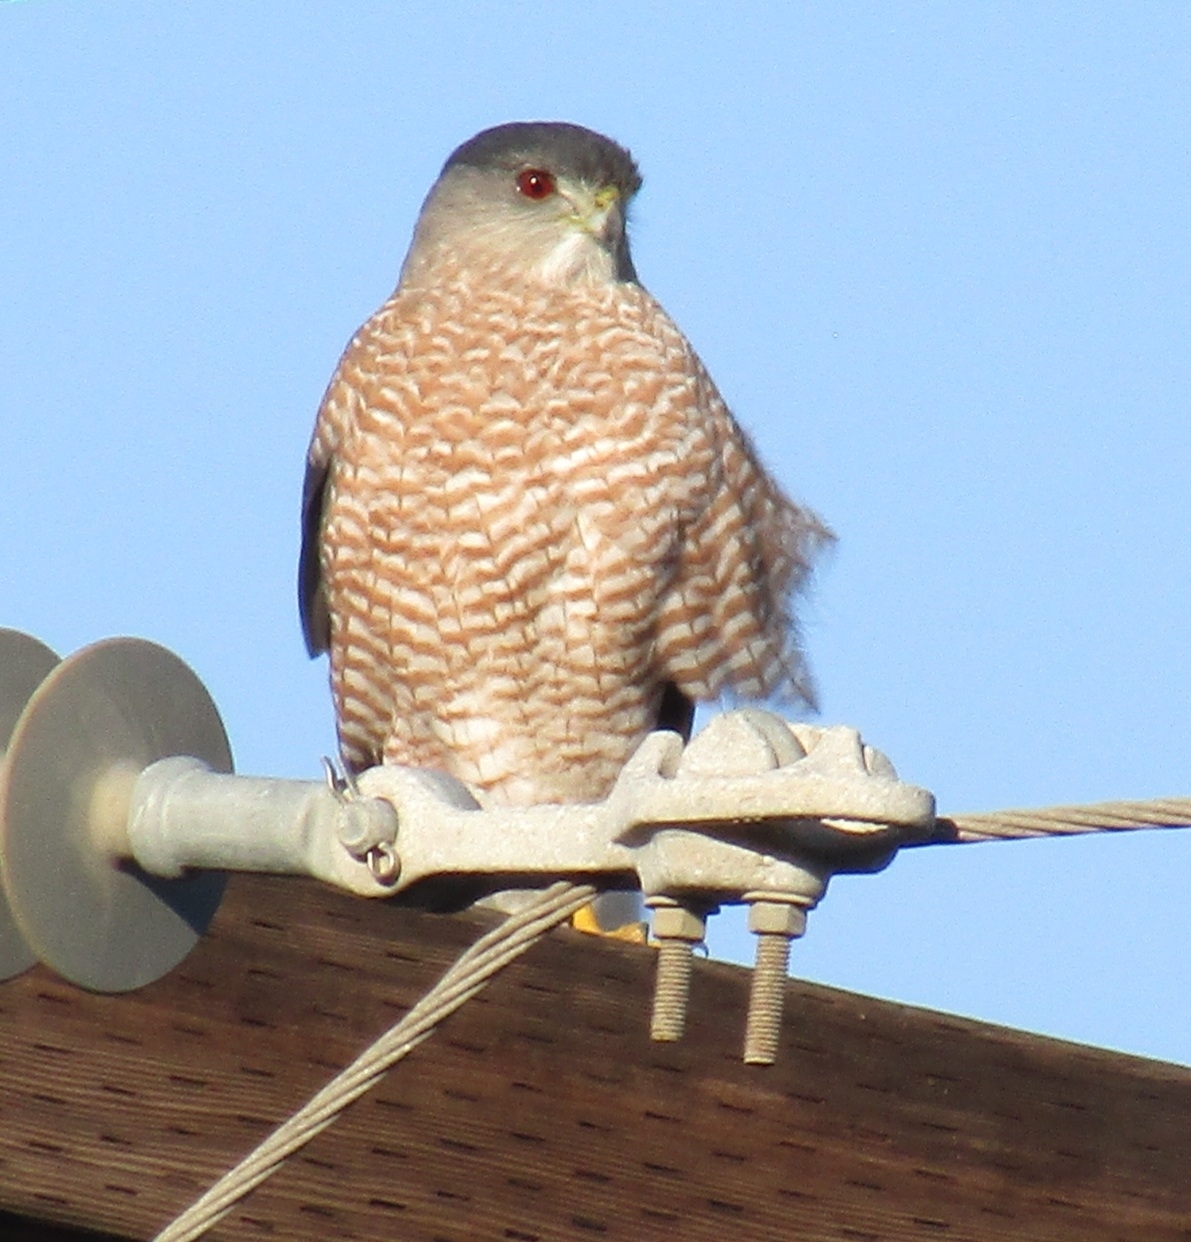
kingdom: Animalia
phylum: Chordata
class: Aves
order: Accipitriformes
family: Accipitridae
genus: Accipiter
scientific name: Accipiter cooperii
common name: Cooper's hawk
